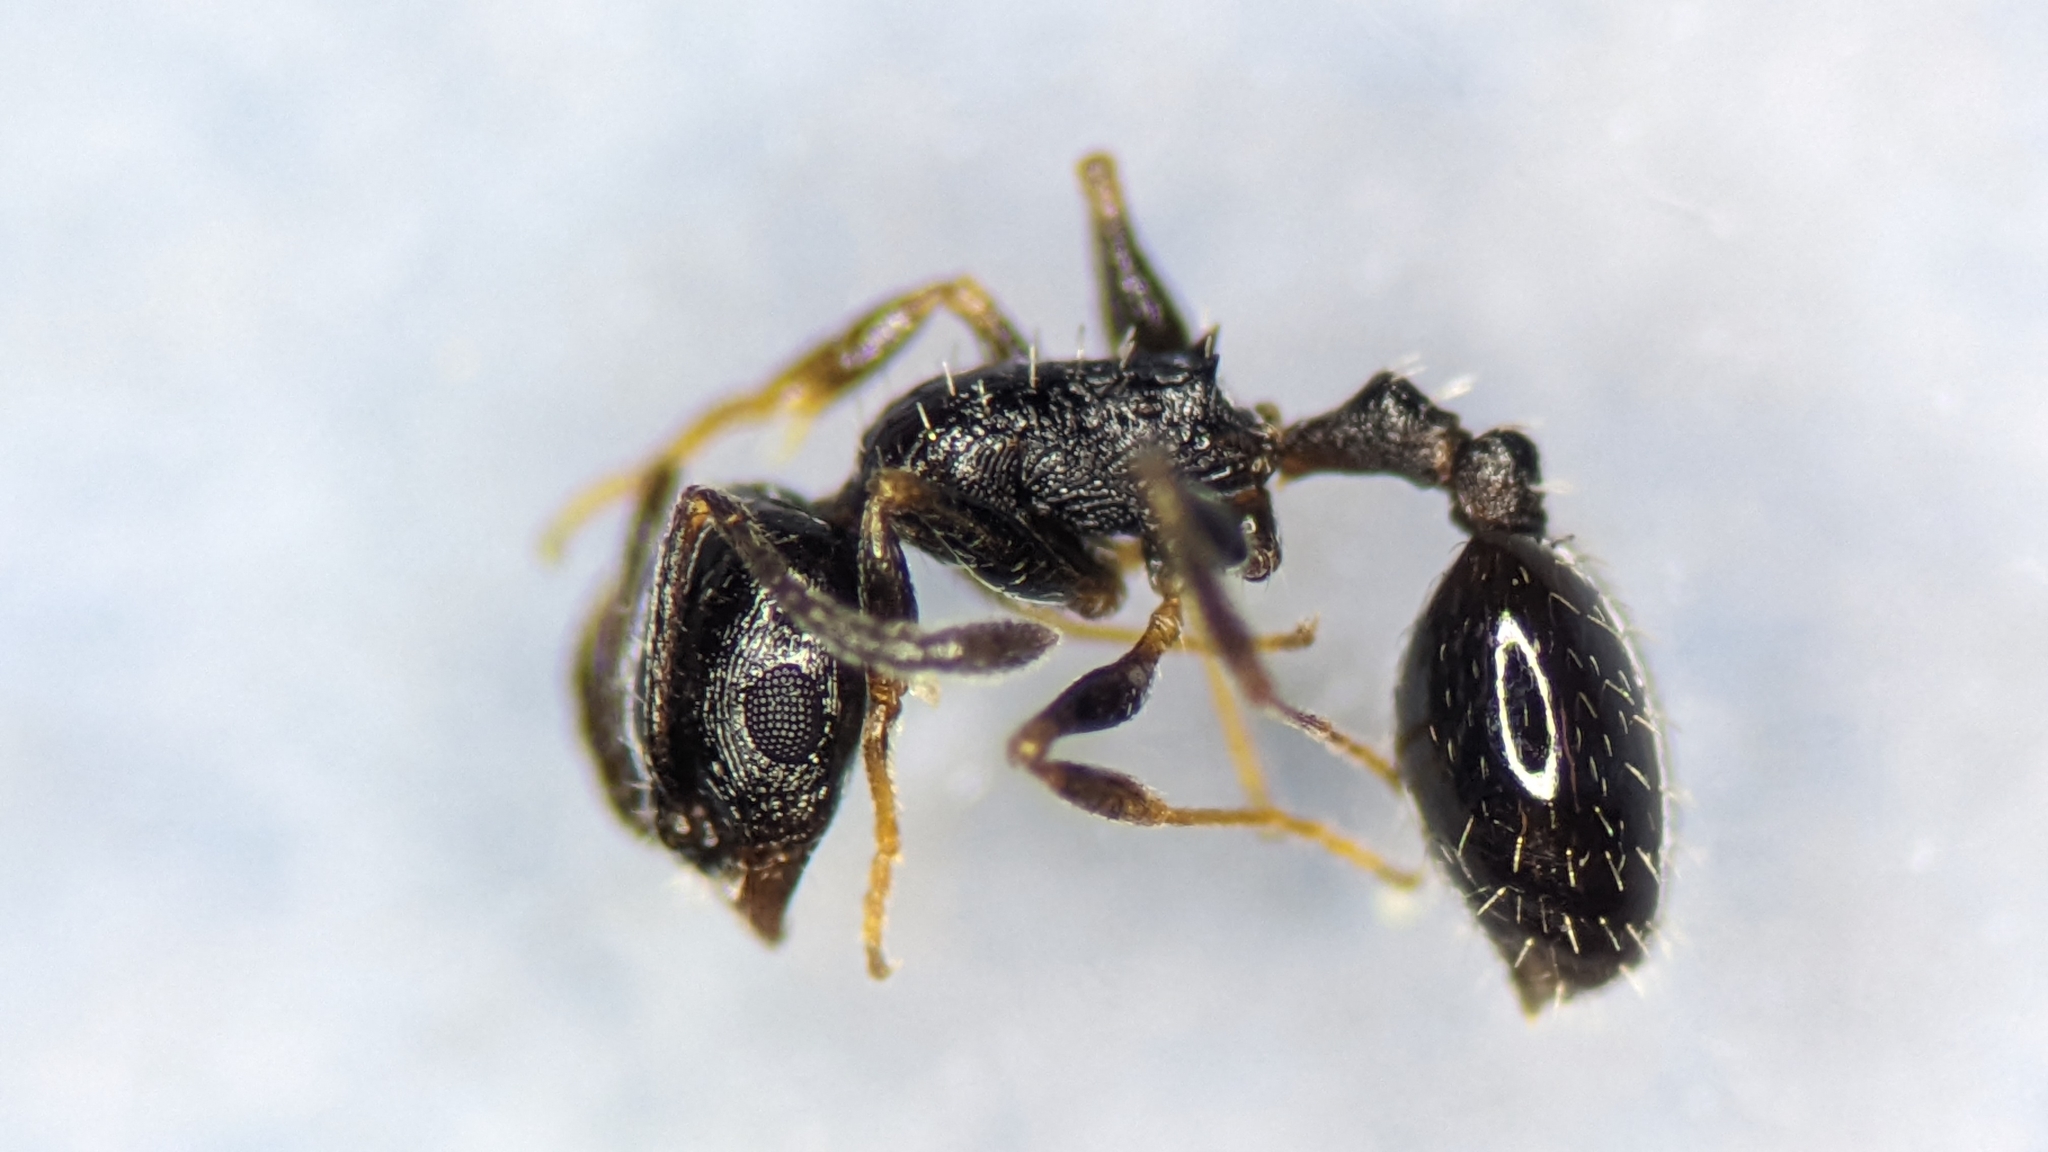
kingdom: Animalia
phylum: Arthropoda
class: Insecta
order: Hymenoptera
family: Formicidae
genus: Leptothorax
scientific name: Leptothorax exilis
